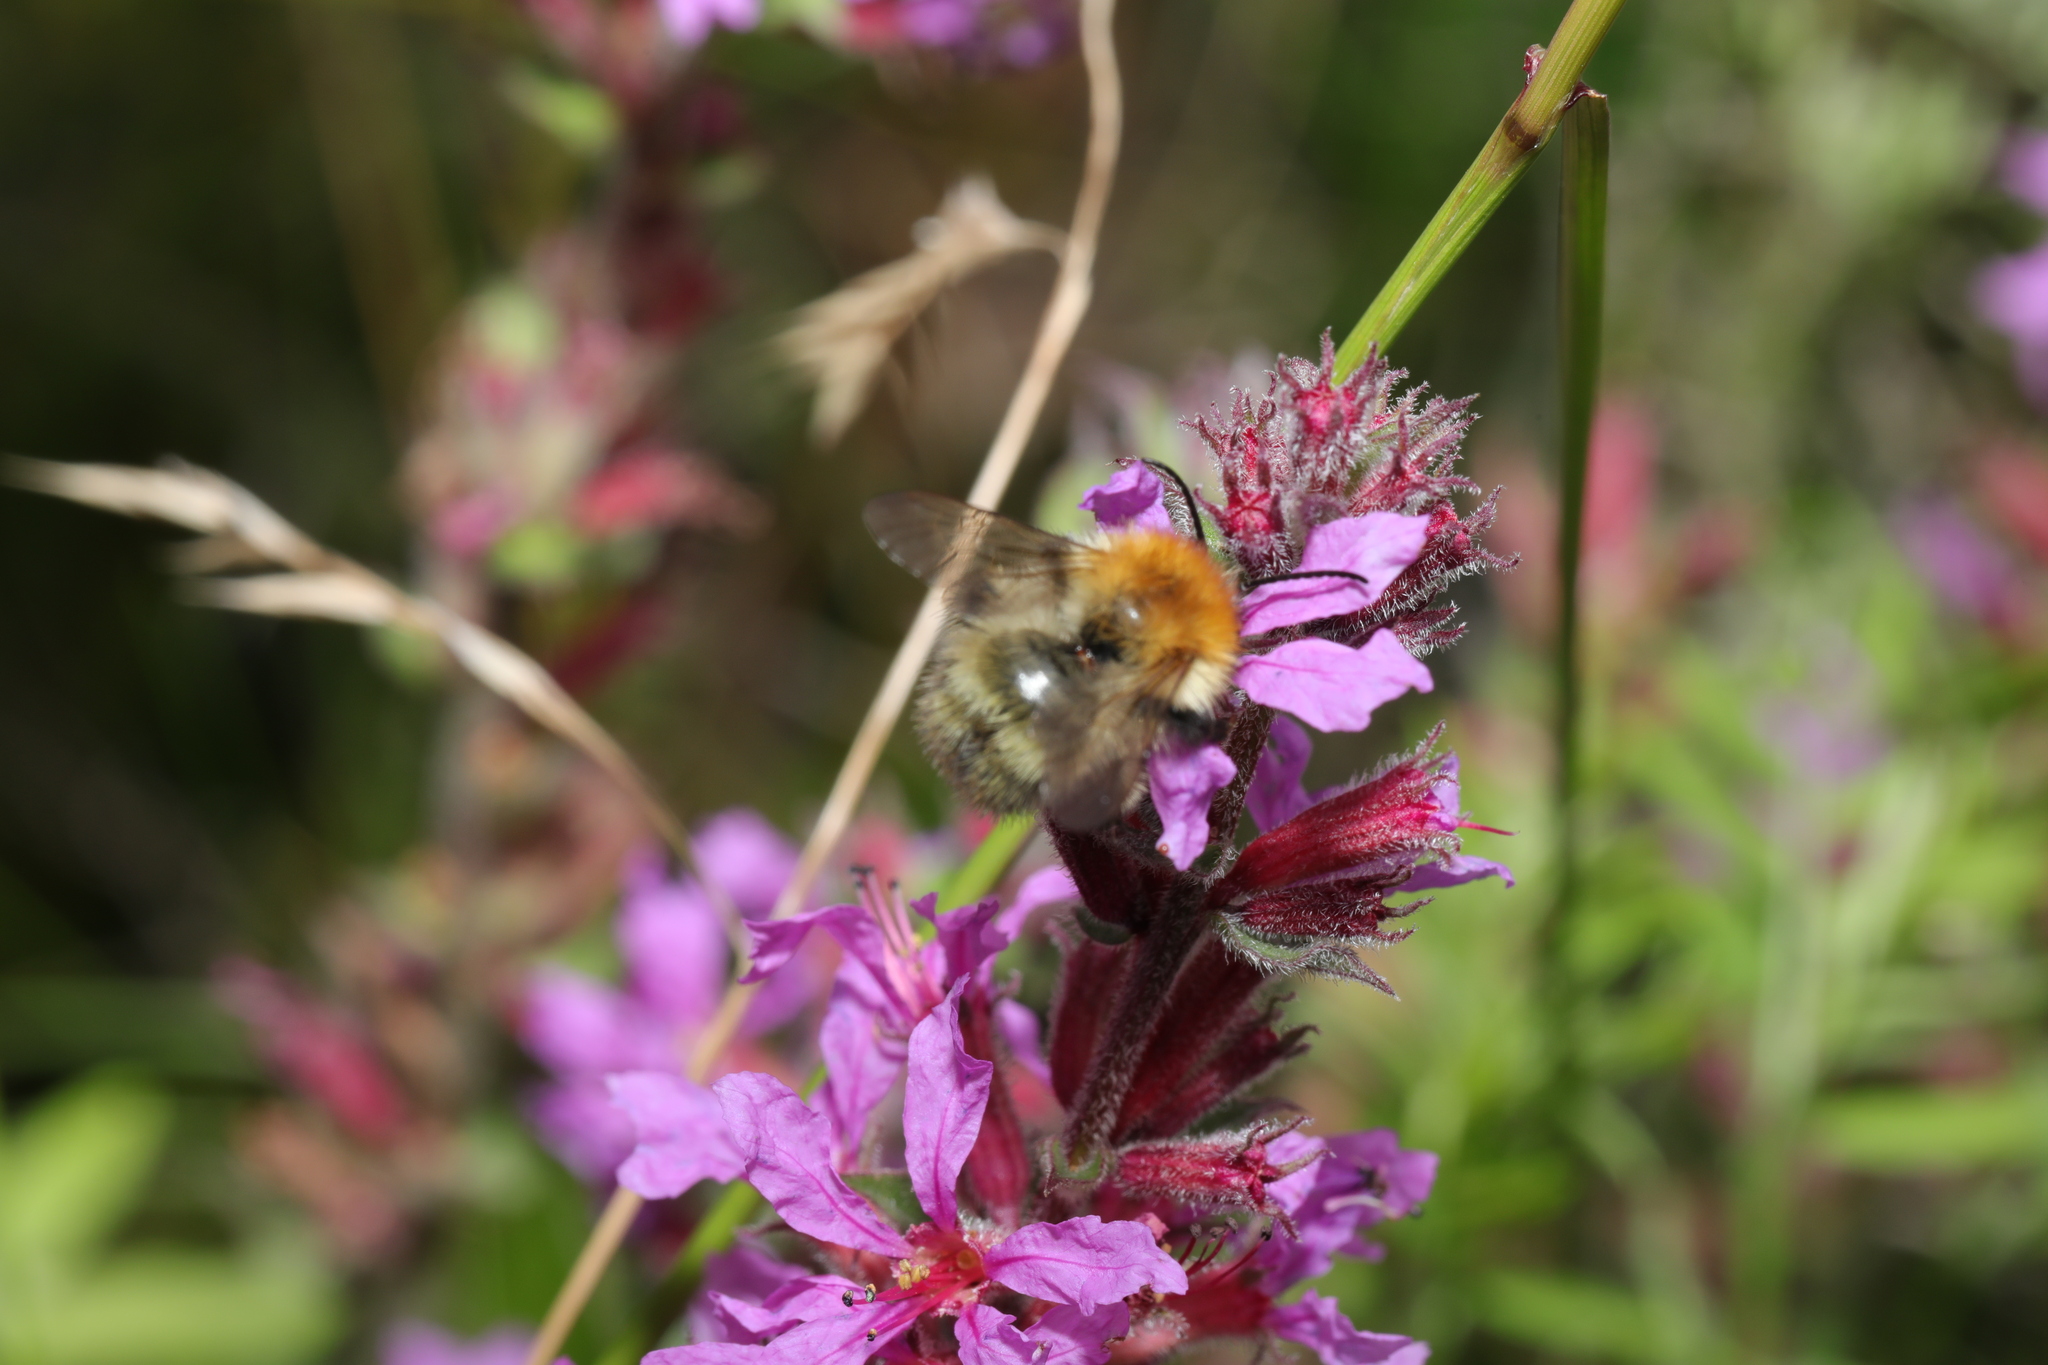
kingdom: Animalia
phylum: Arthropoda
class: Insecta
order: Hymenoptera
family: Apidae
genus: Bombus
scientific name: Bombus pascuorum
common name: Common carder bee
